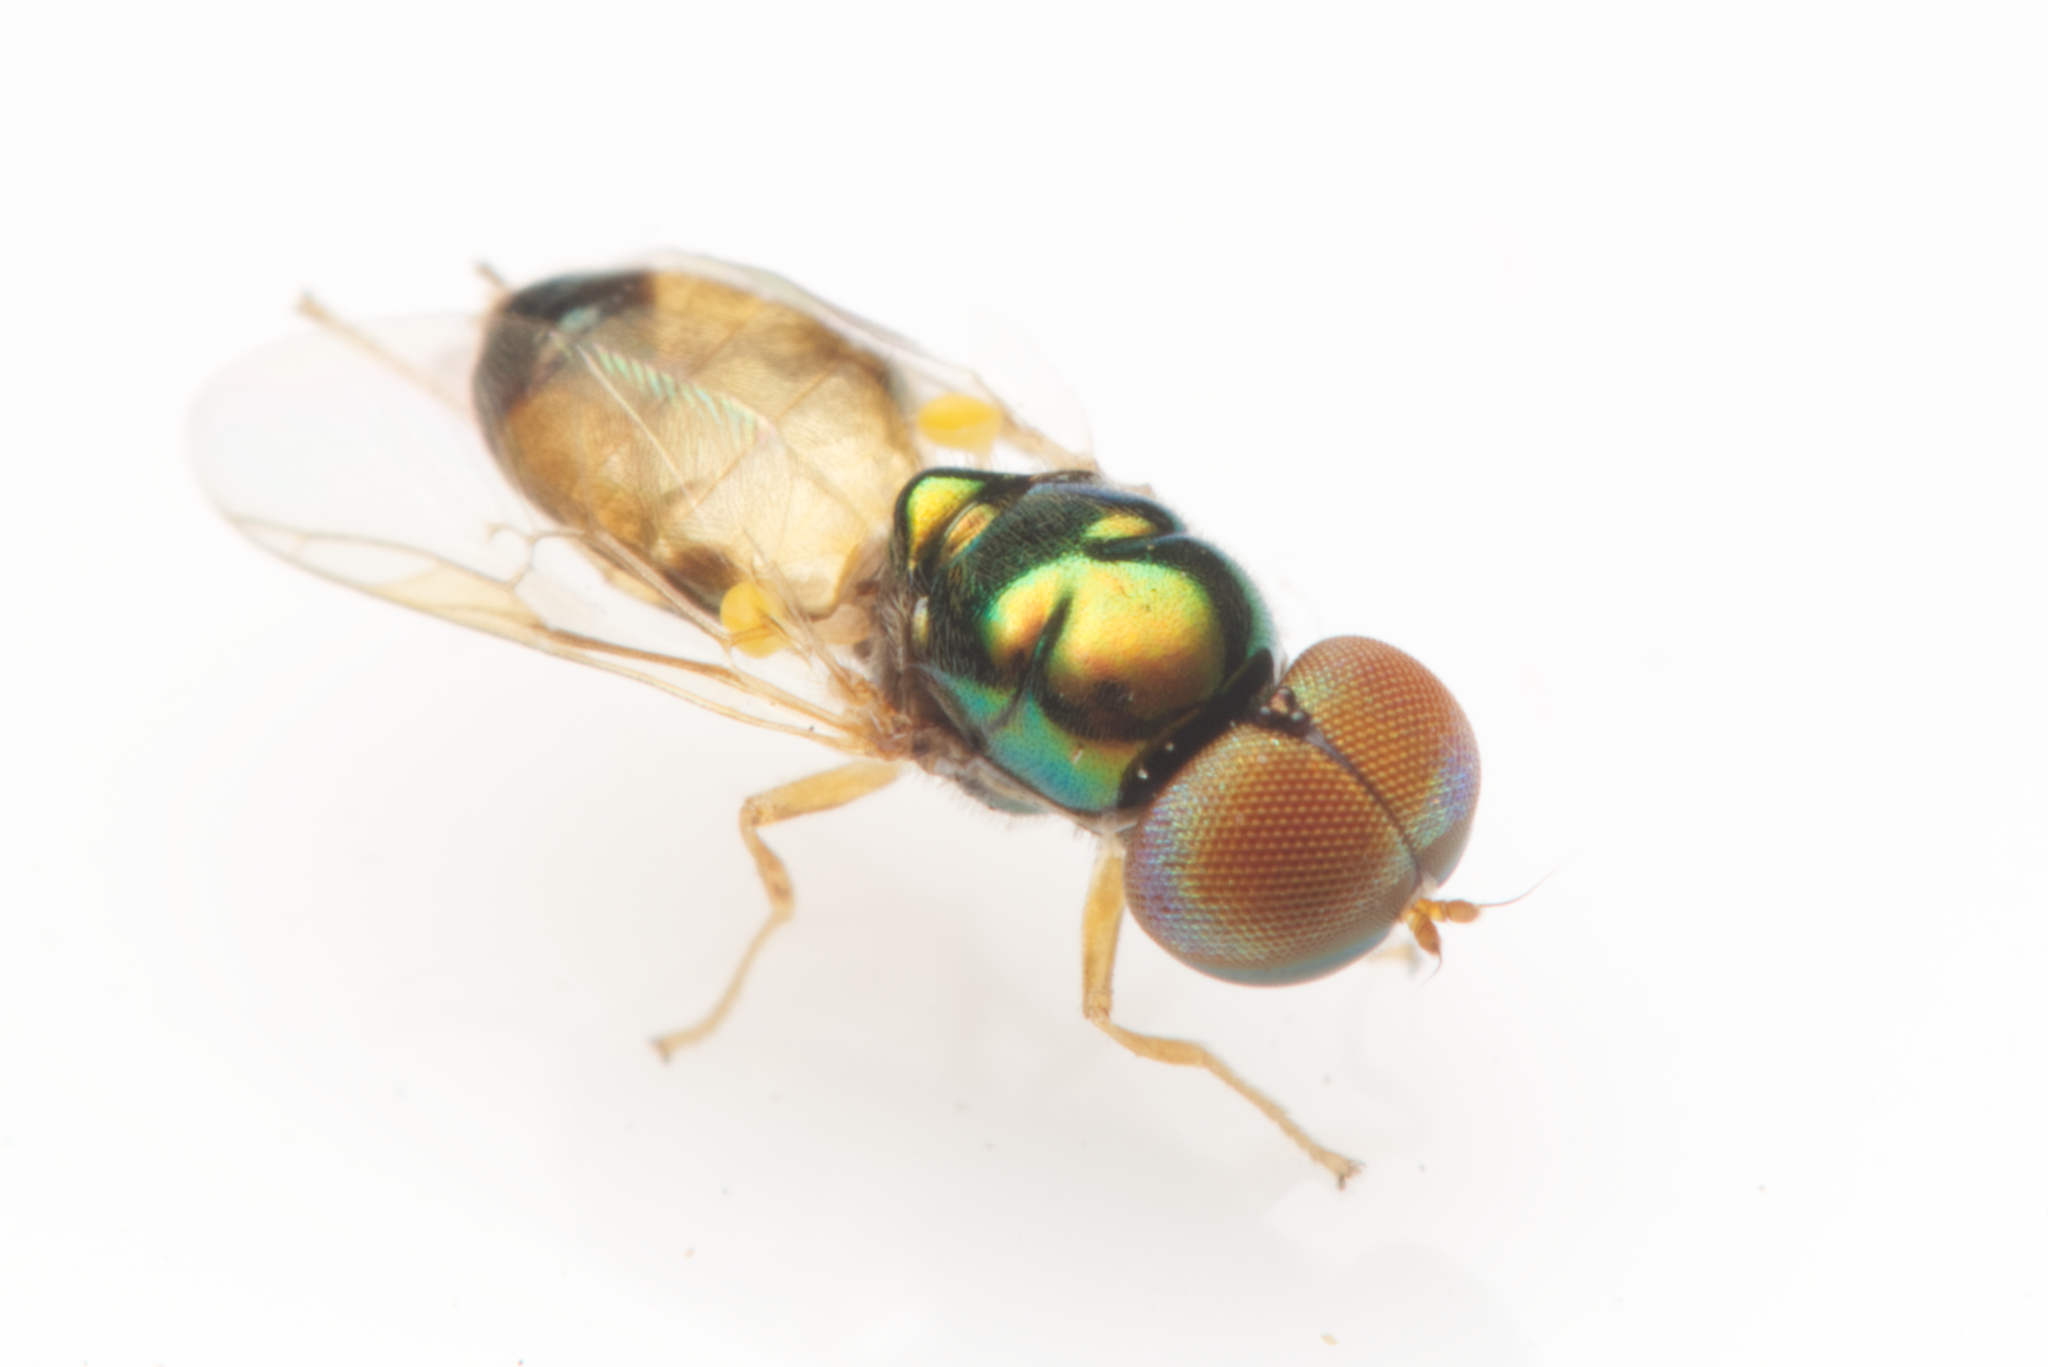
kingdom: Animalia
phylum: Arthropoda
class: Insecta
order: Diptera
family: Stratiomyidae
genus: Microchrysa
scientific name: Microchrysa flaviventris
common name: Soldier fly
